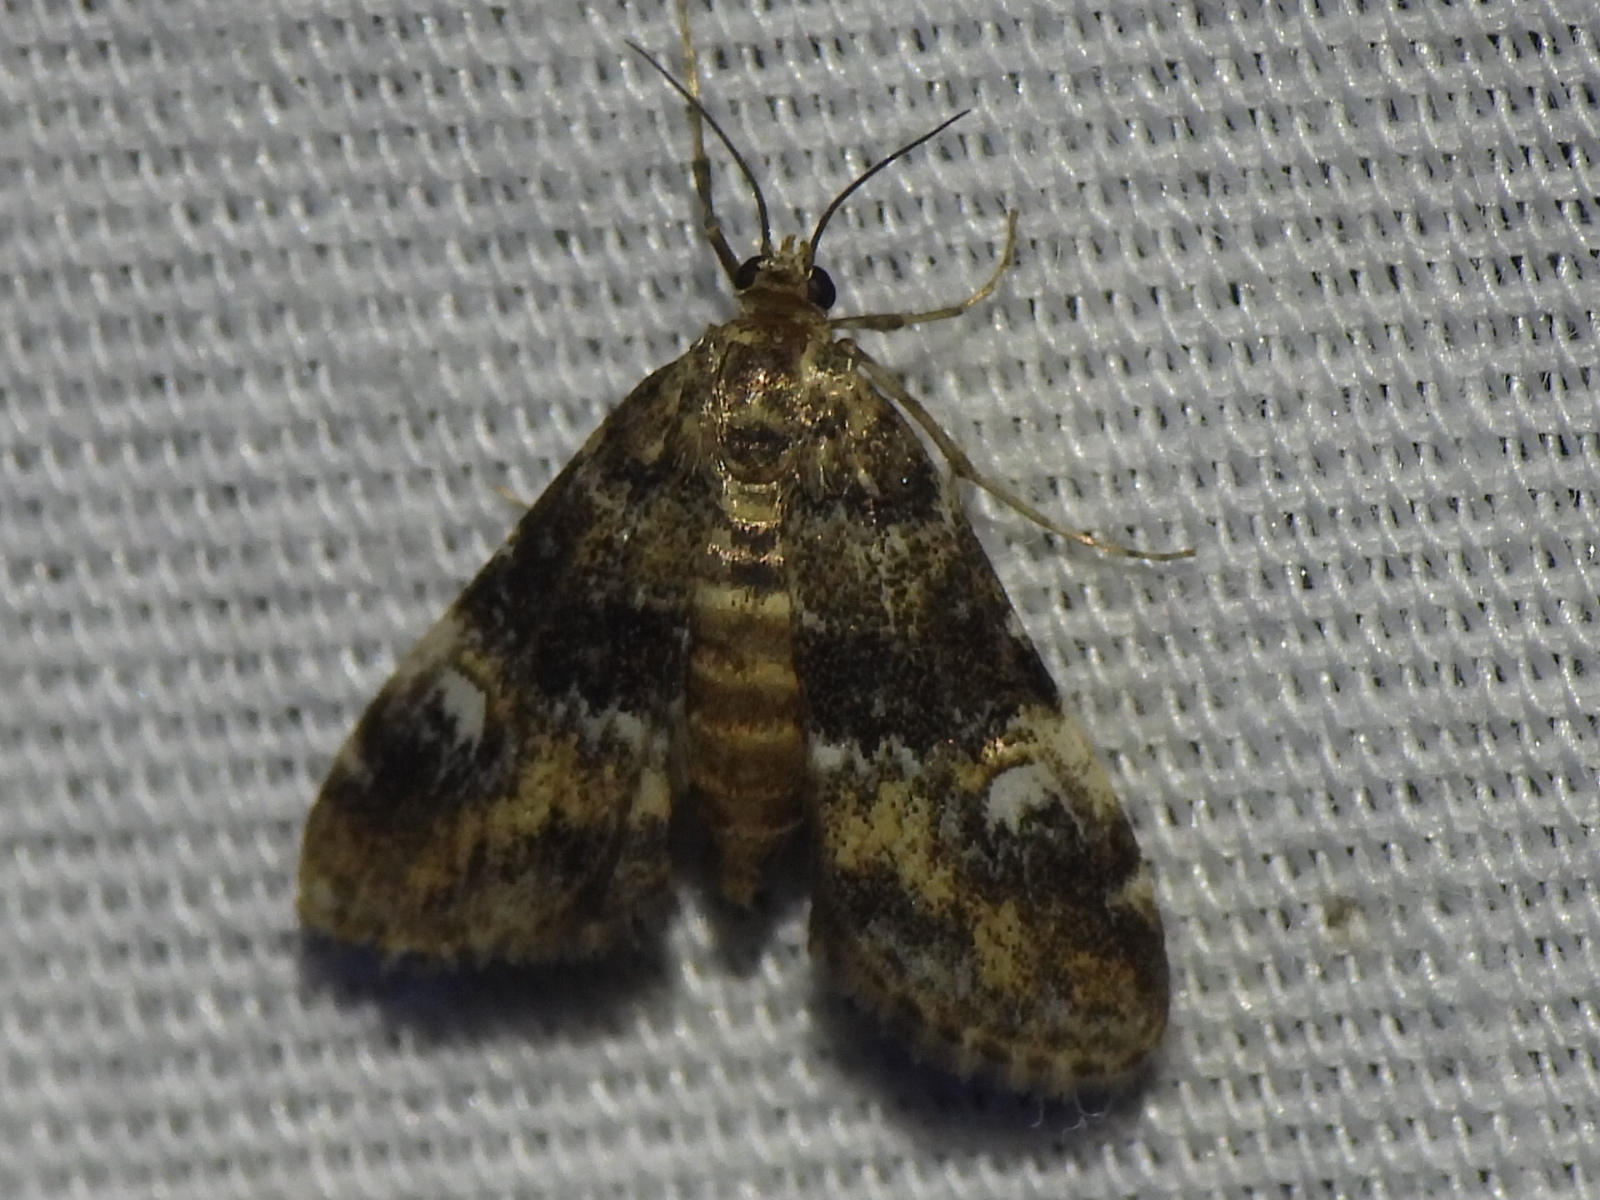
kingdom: Animalia
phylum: Arthropoda
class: Insecta
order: Lepidoptera
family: Crambidae
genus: Elophila
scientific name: Elophila obliteralis
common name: Waterlily leafcutter moth
